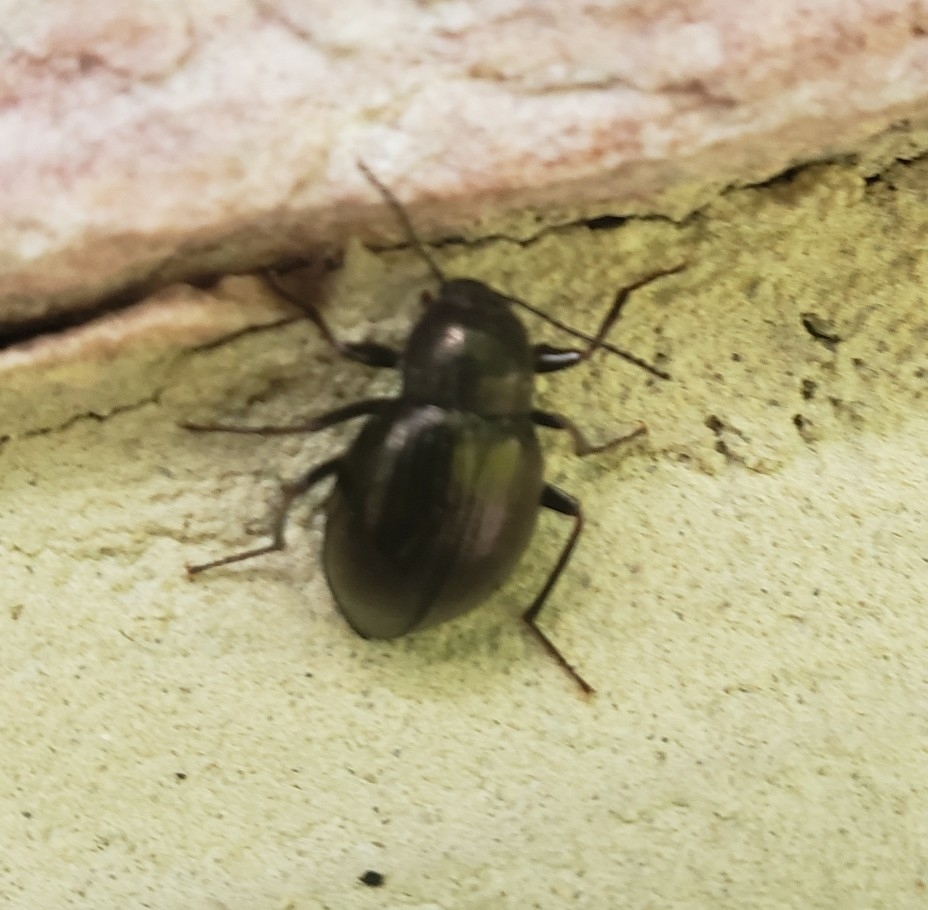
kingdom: Animalia
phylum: Arthropoda
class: Insecta
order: Coleoptera
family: Tenebrionidae
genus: Meracantha
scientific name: Meracantha contracta
